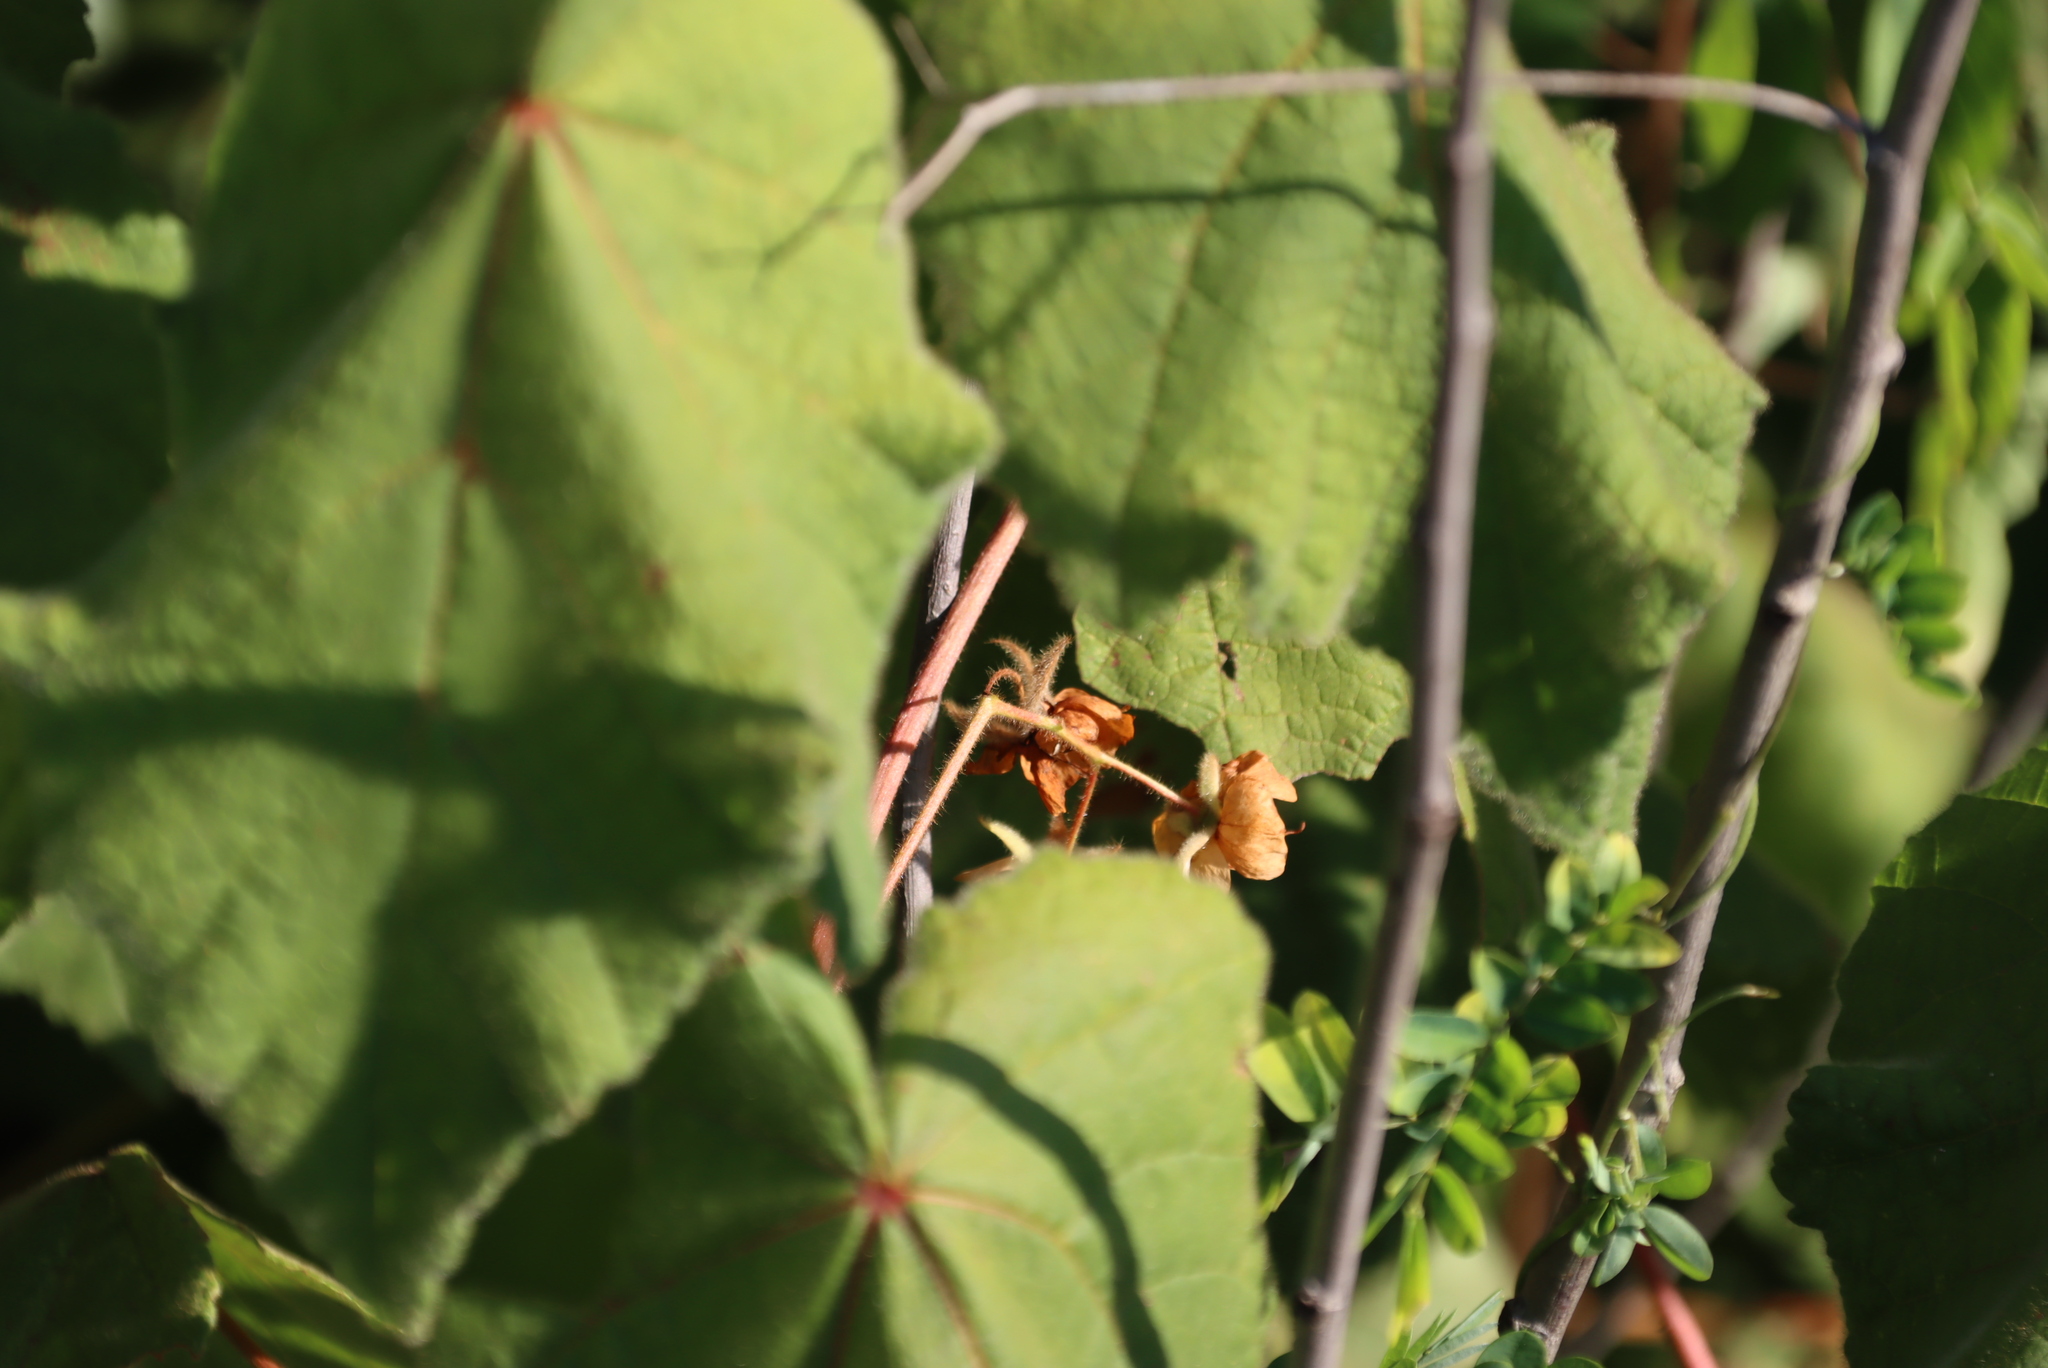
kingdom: Plantae
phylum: Tracheophyta
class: Magnoliopsida
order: Malvales
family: Malvaceae
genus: Dombeya
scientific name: Dombeya burgessiae
